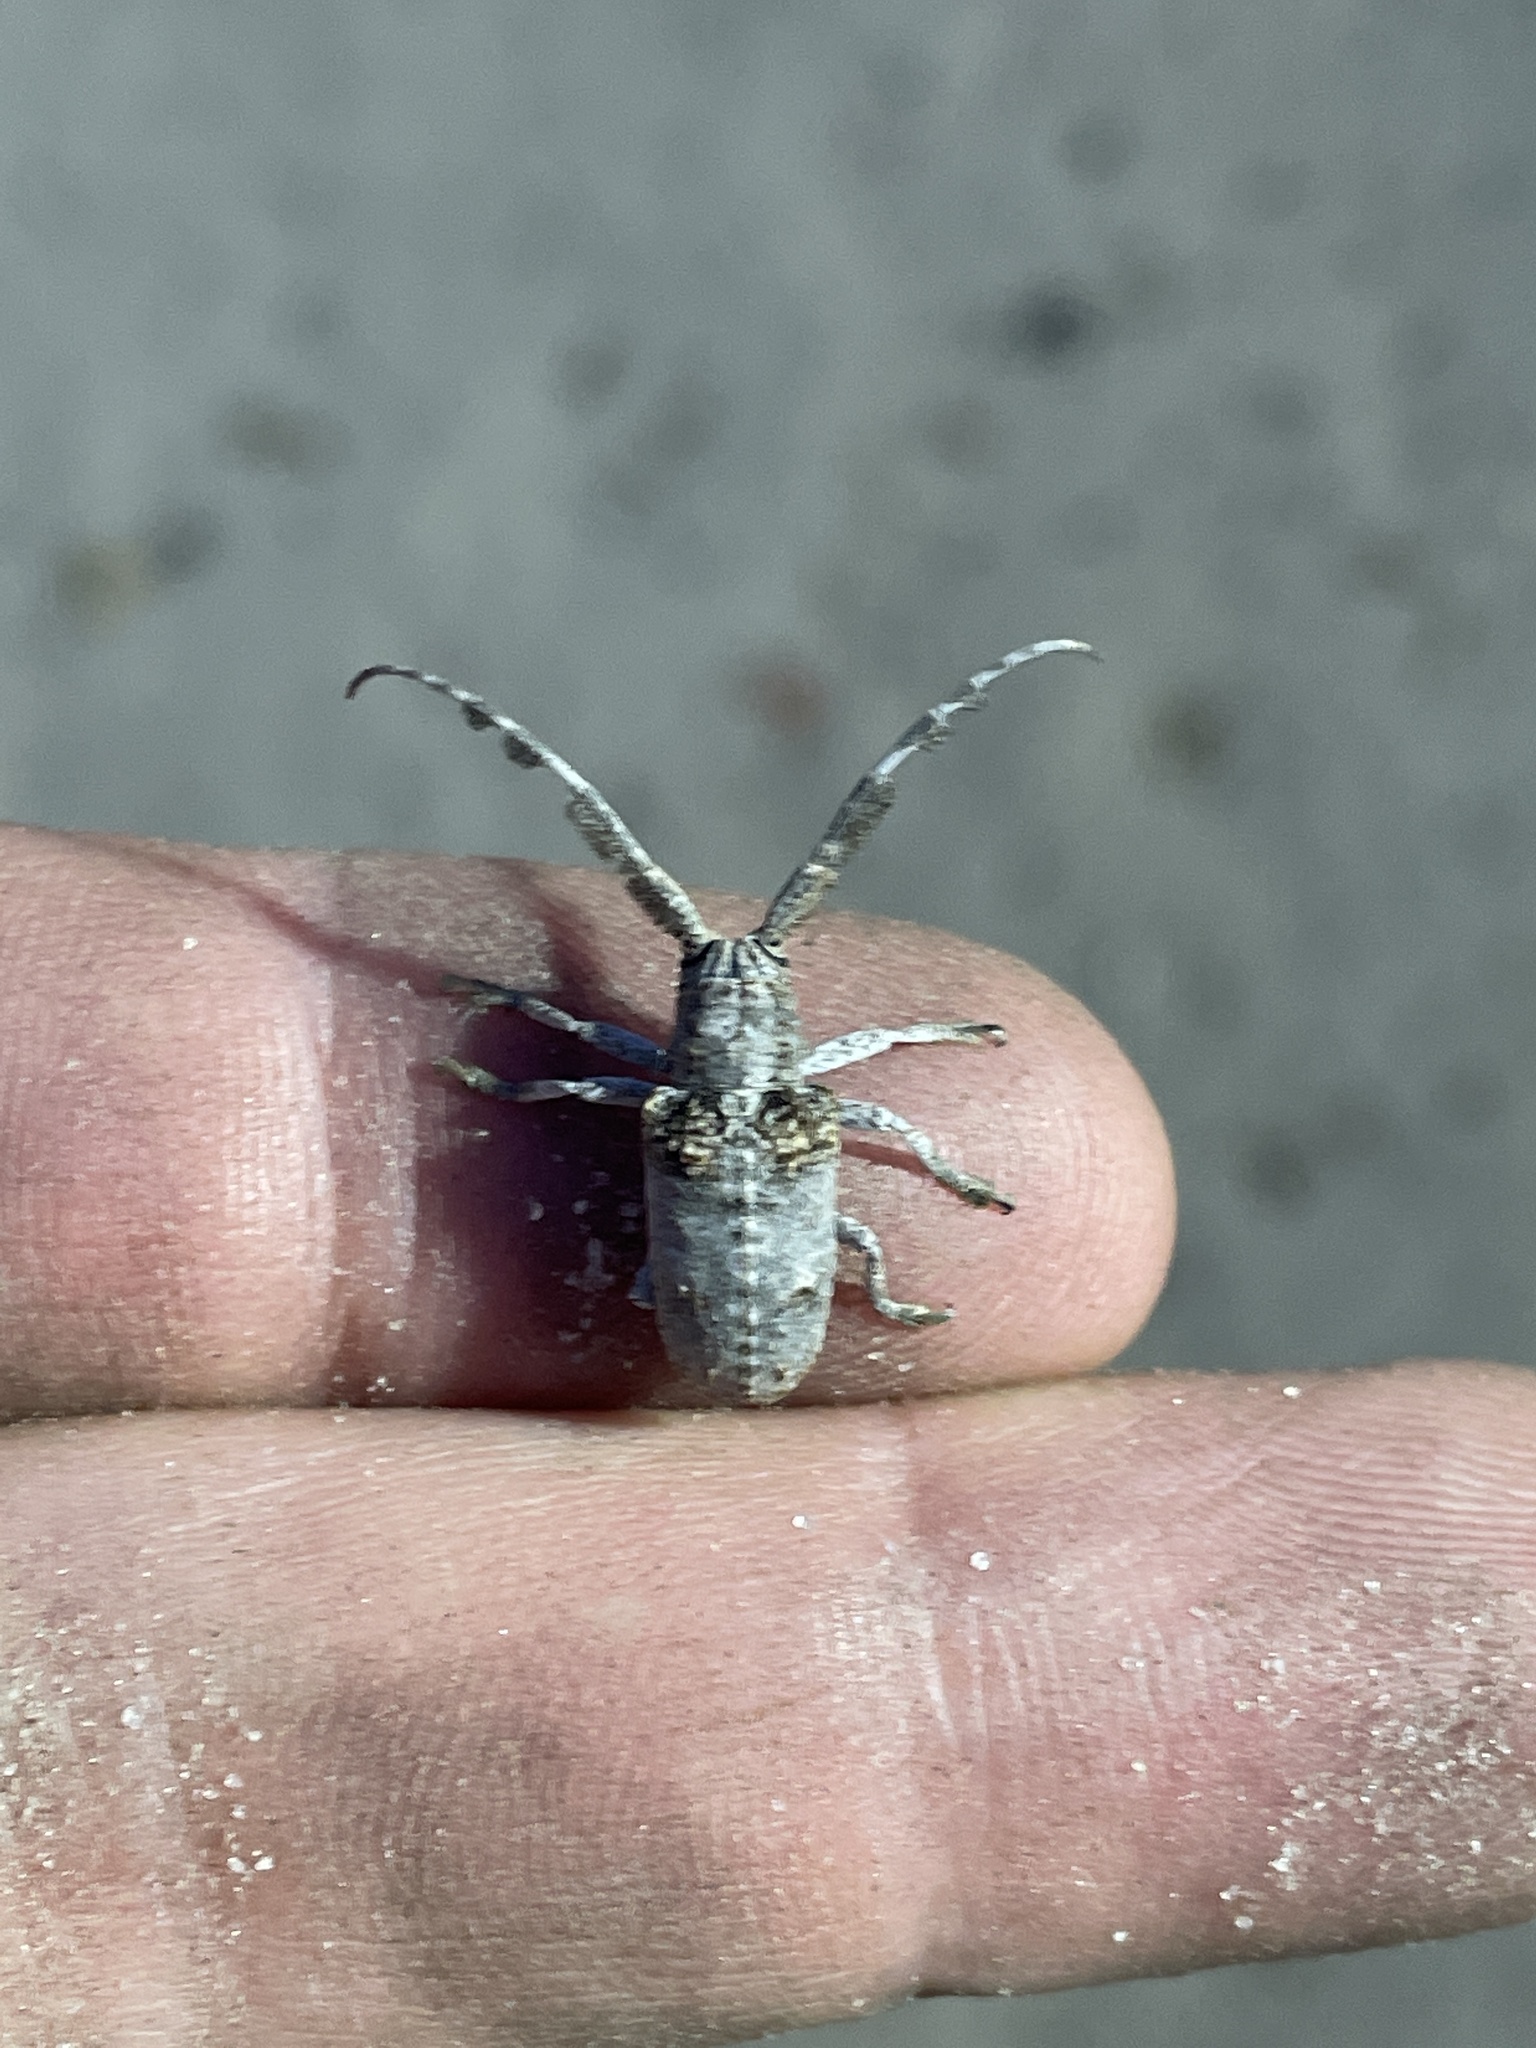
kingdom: Animalia
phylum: Arthropoda
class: Insecta
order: Coleoptera
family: Cerambycidae
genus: Crossotus
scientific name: Crossotus plumicornis
